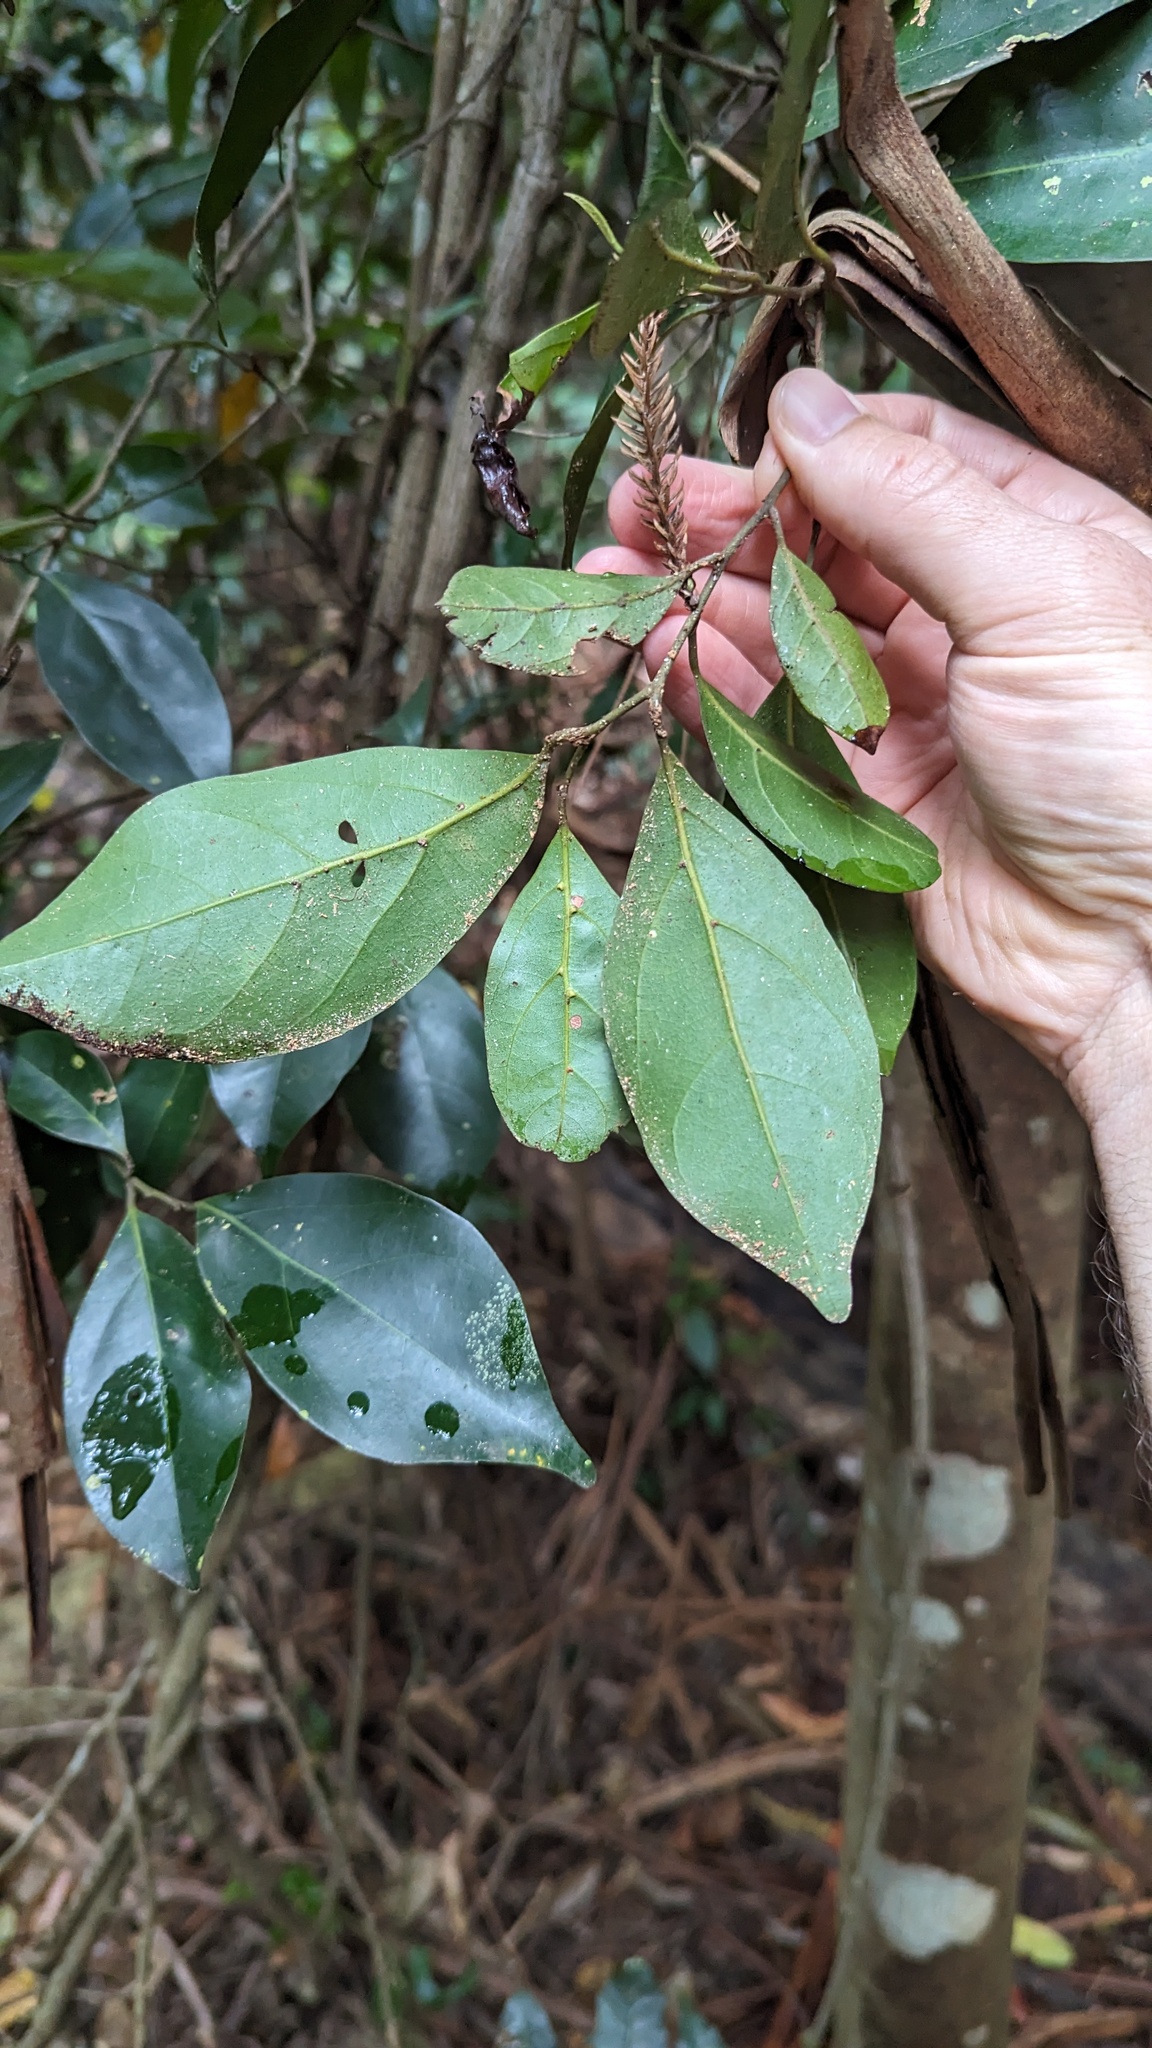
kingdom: Plantae
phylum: Tracheophyta
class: Magnoliopsida
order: Laurales
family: Lauraceae
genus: Endiandra
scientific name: Endiandra discolor
